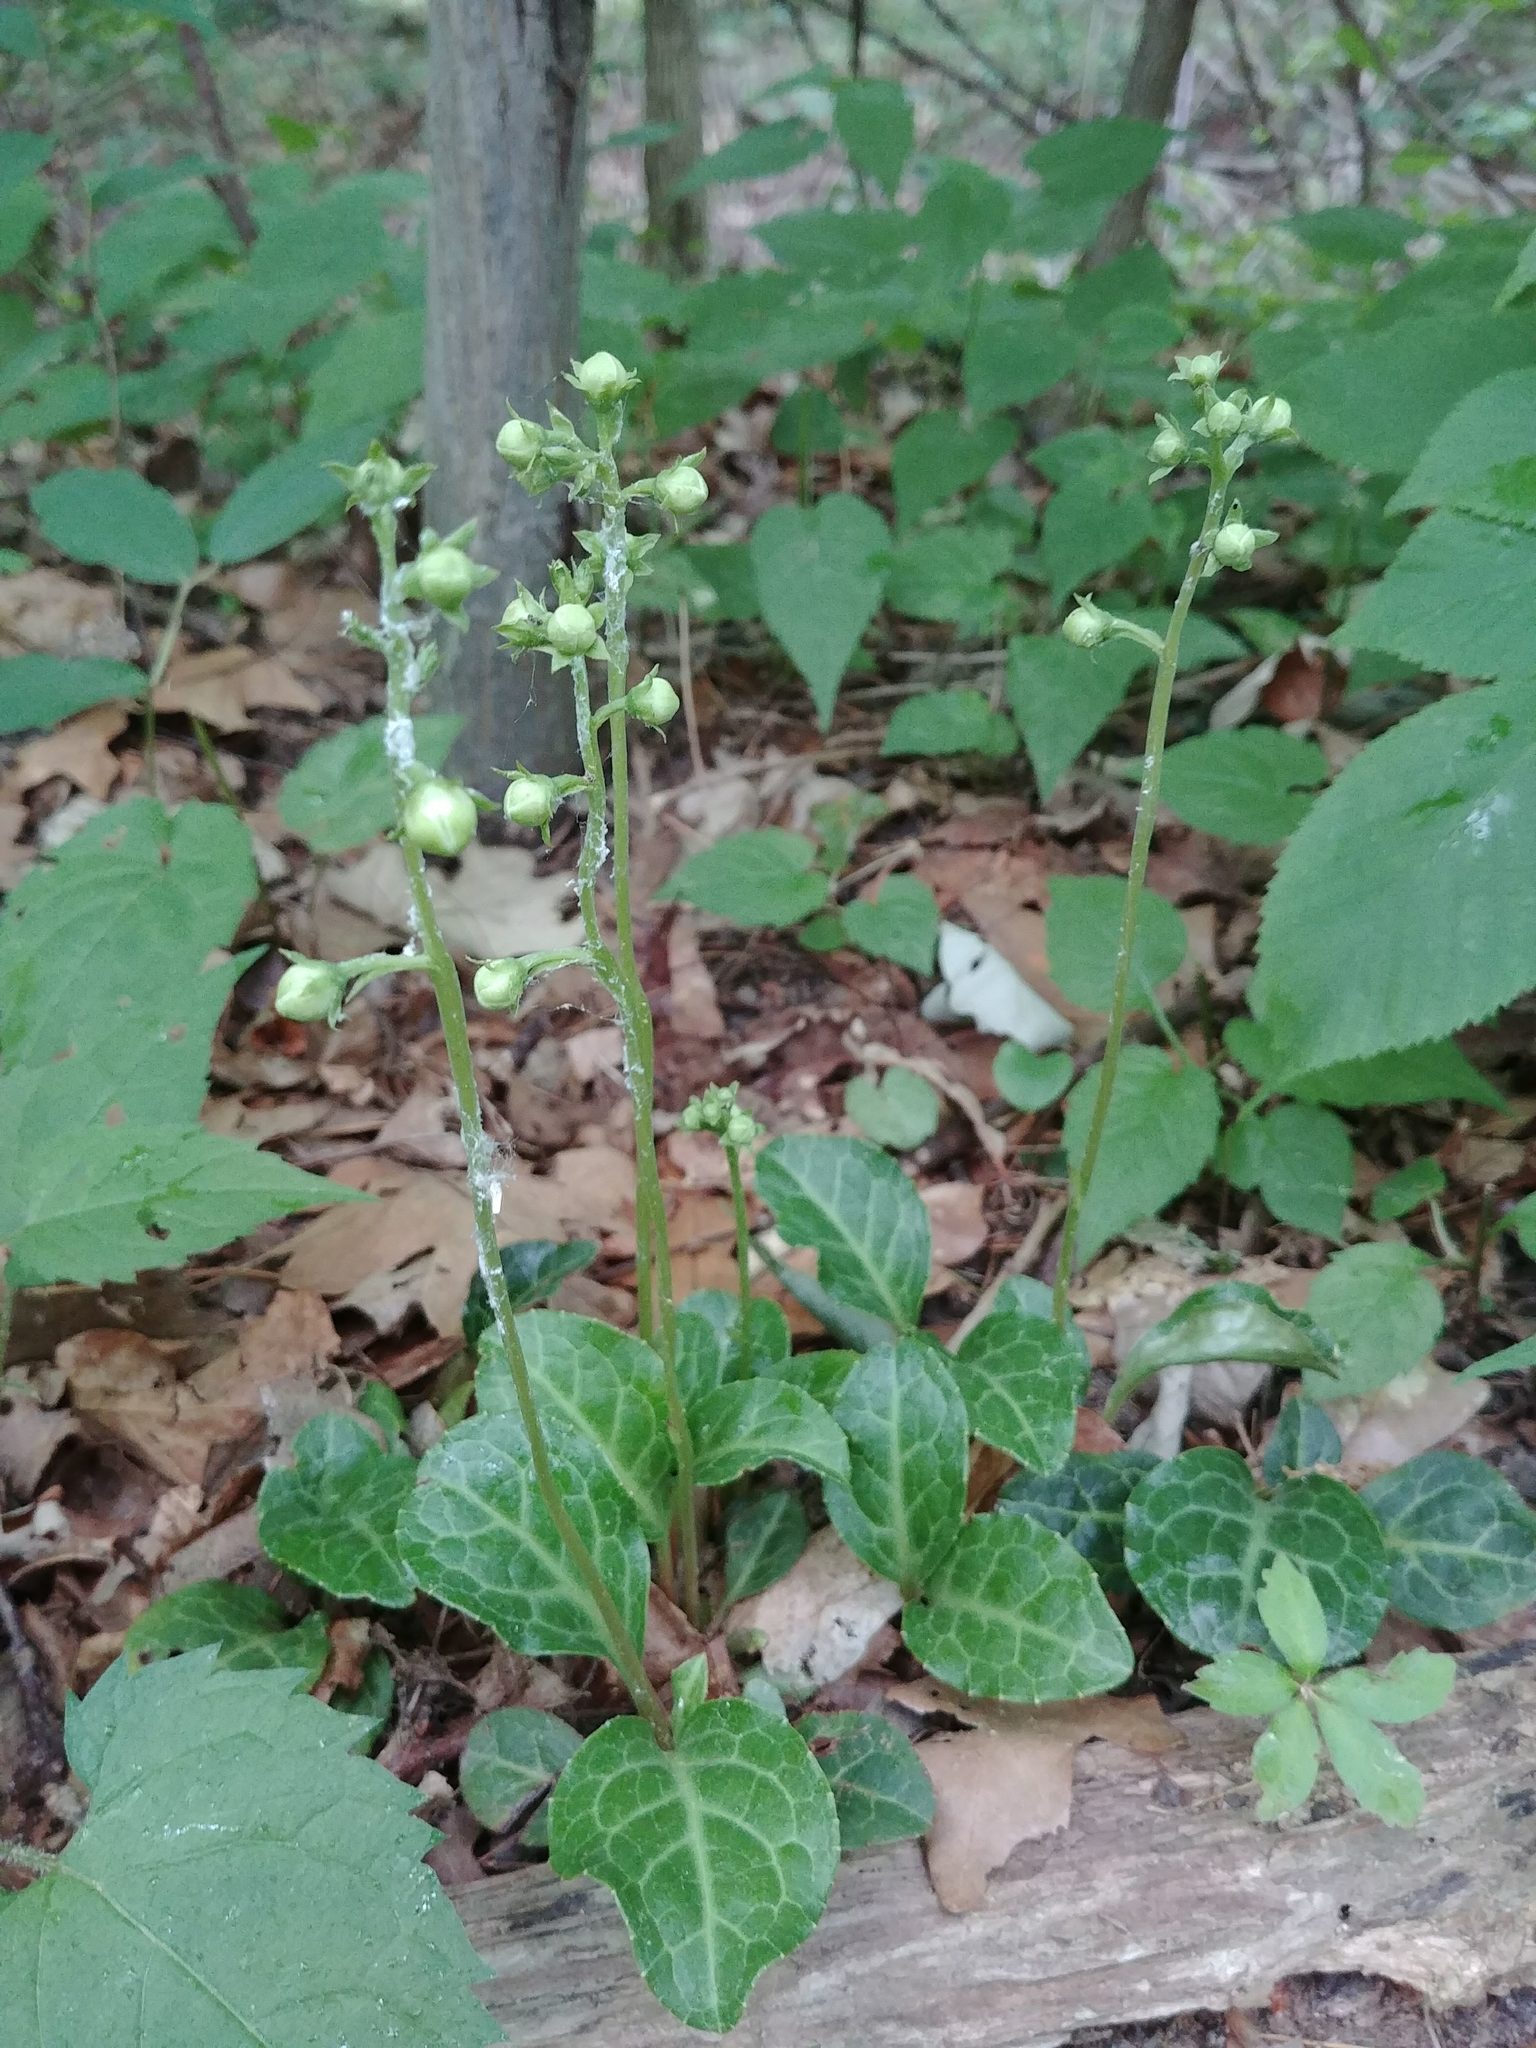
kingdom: Plantae
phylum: Tracheophyta
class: Magnoliopsida
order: Ericales
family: Ericaceae
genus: Pyrola
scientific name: Pyrola americana
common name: American wintergreen
